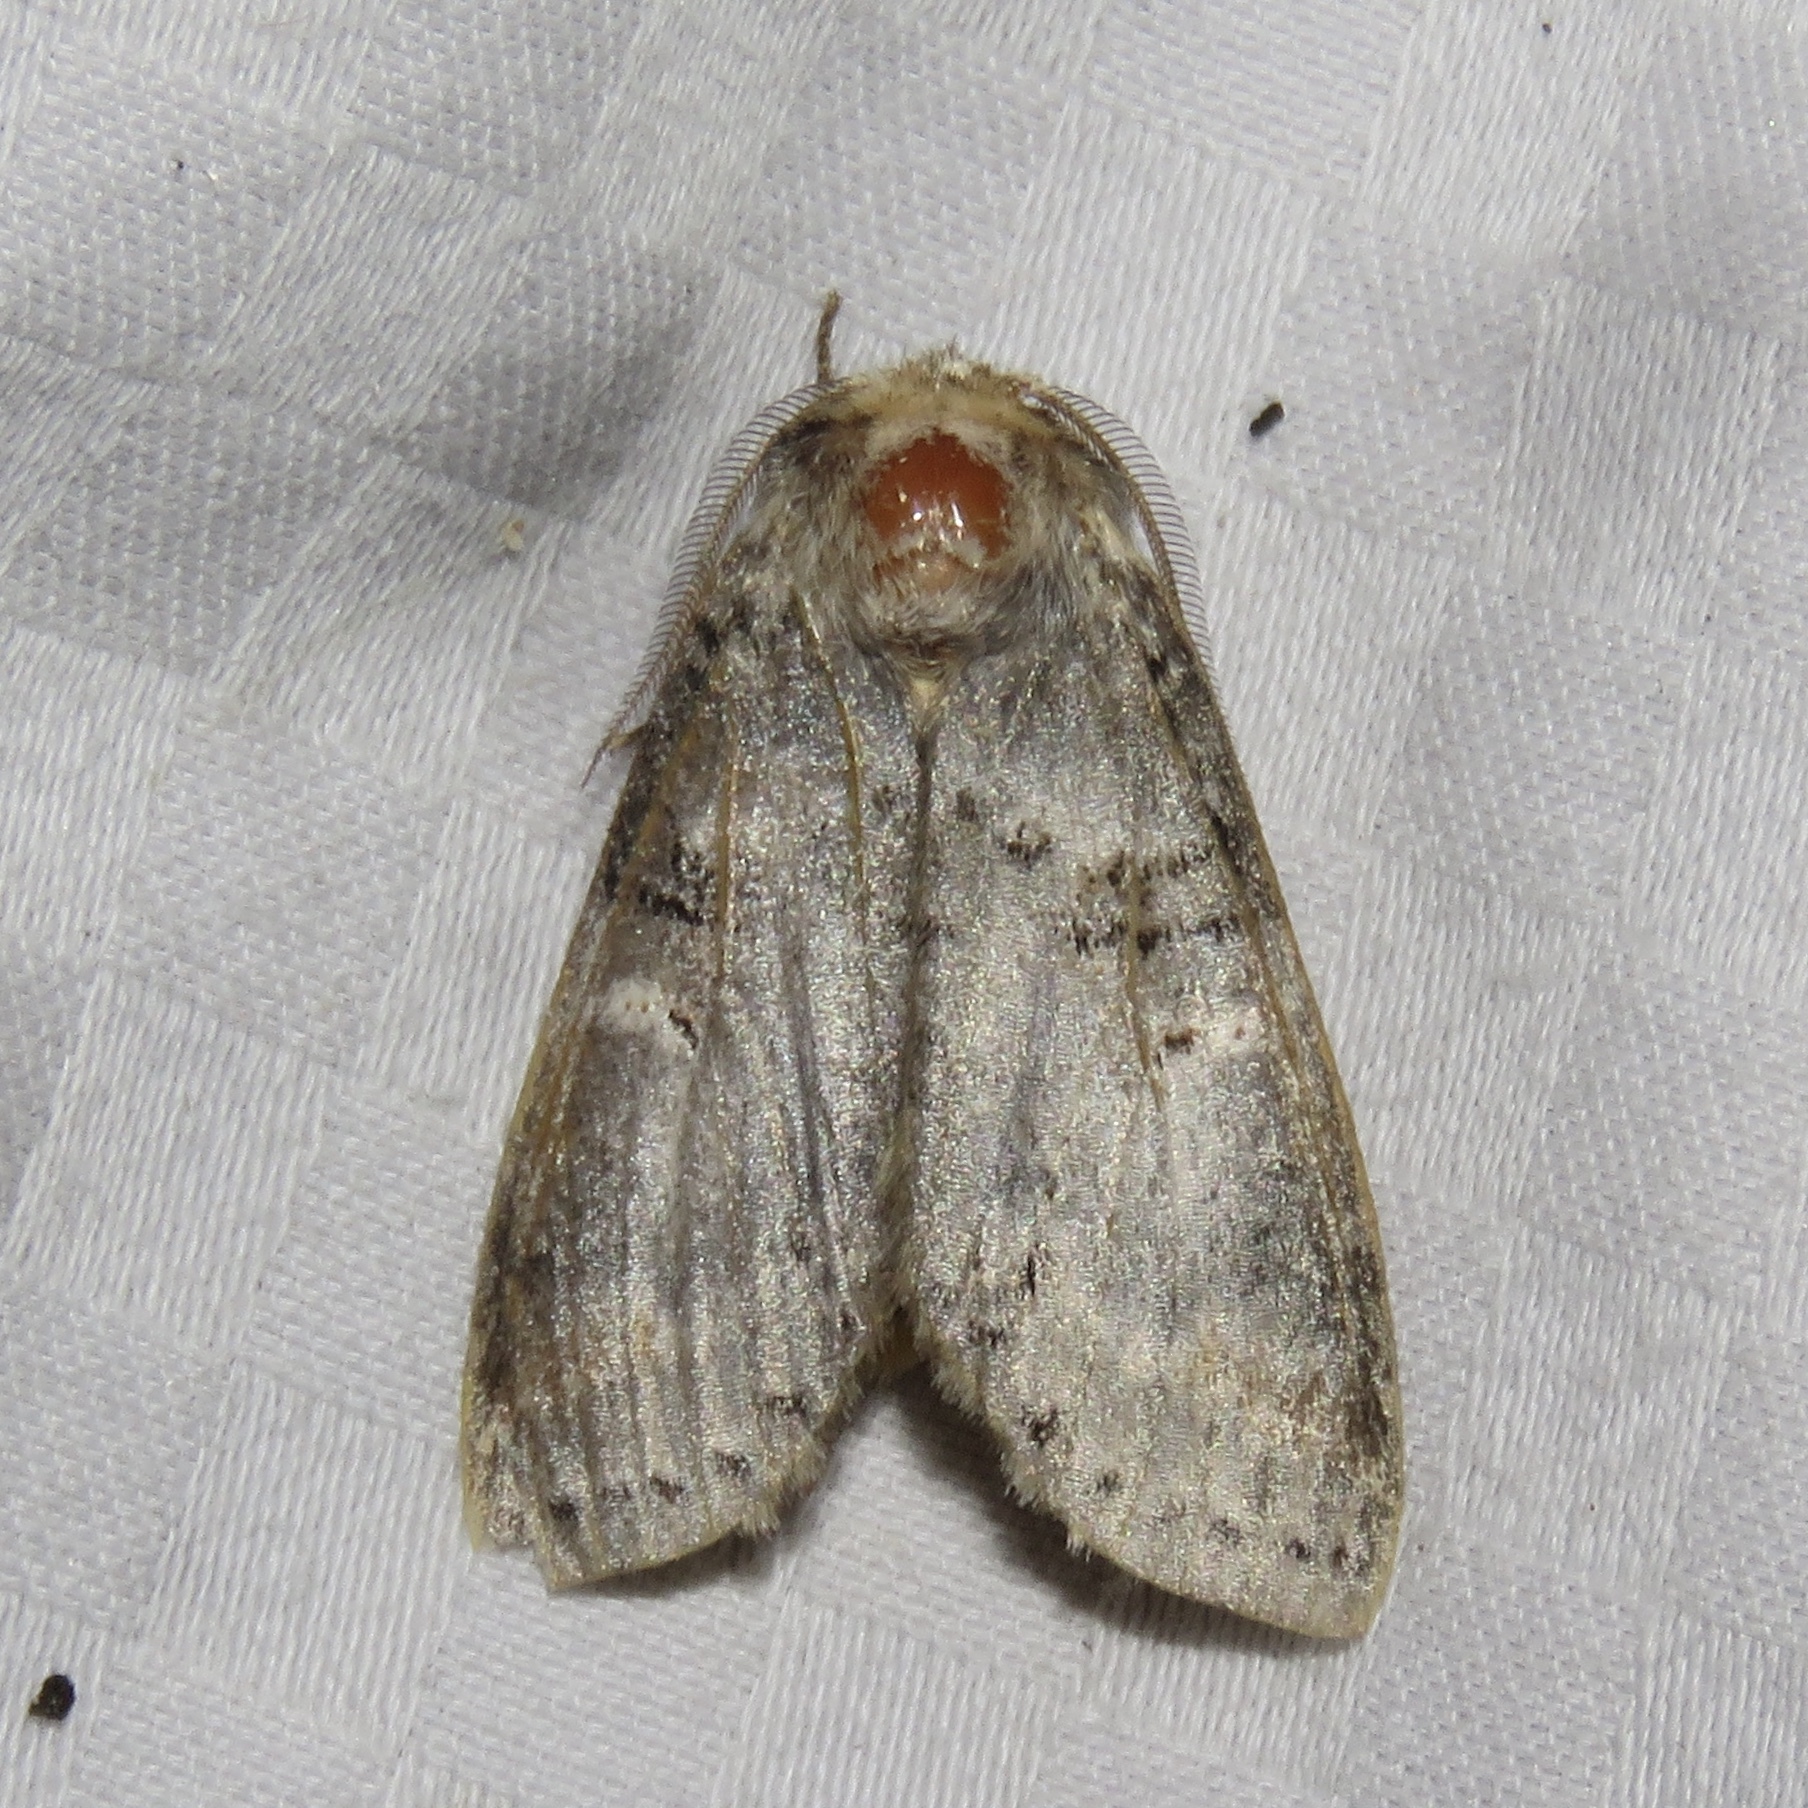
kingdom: Animalia
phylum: Arthropoda
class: Insecta
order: Lepidoptera
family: Notodontidae
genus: Ellida
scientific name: Ellida caniplaga
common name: Linden prominent
